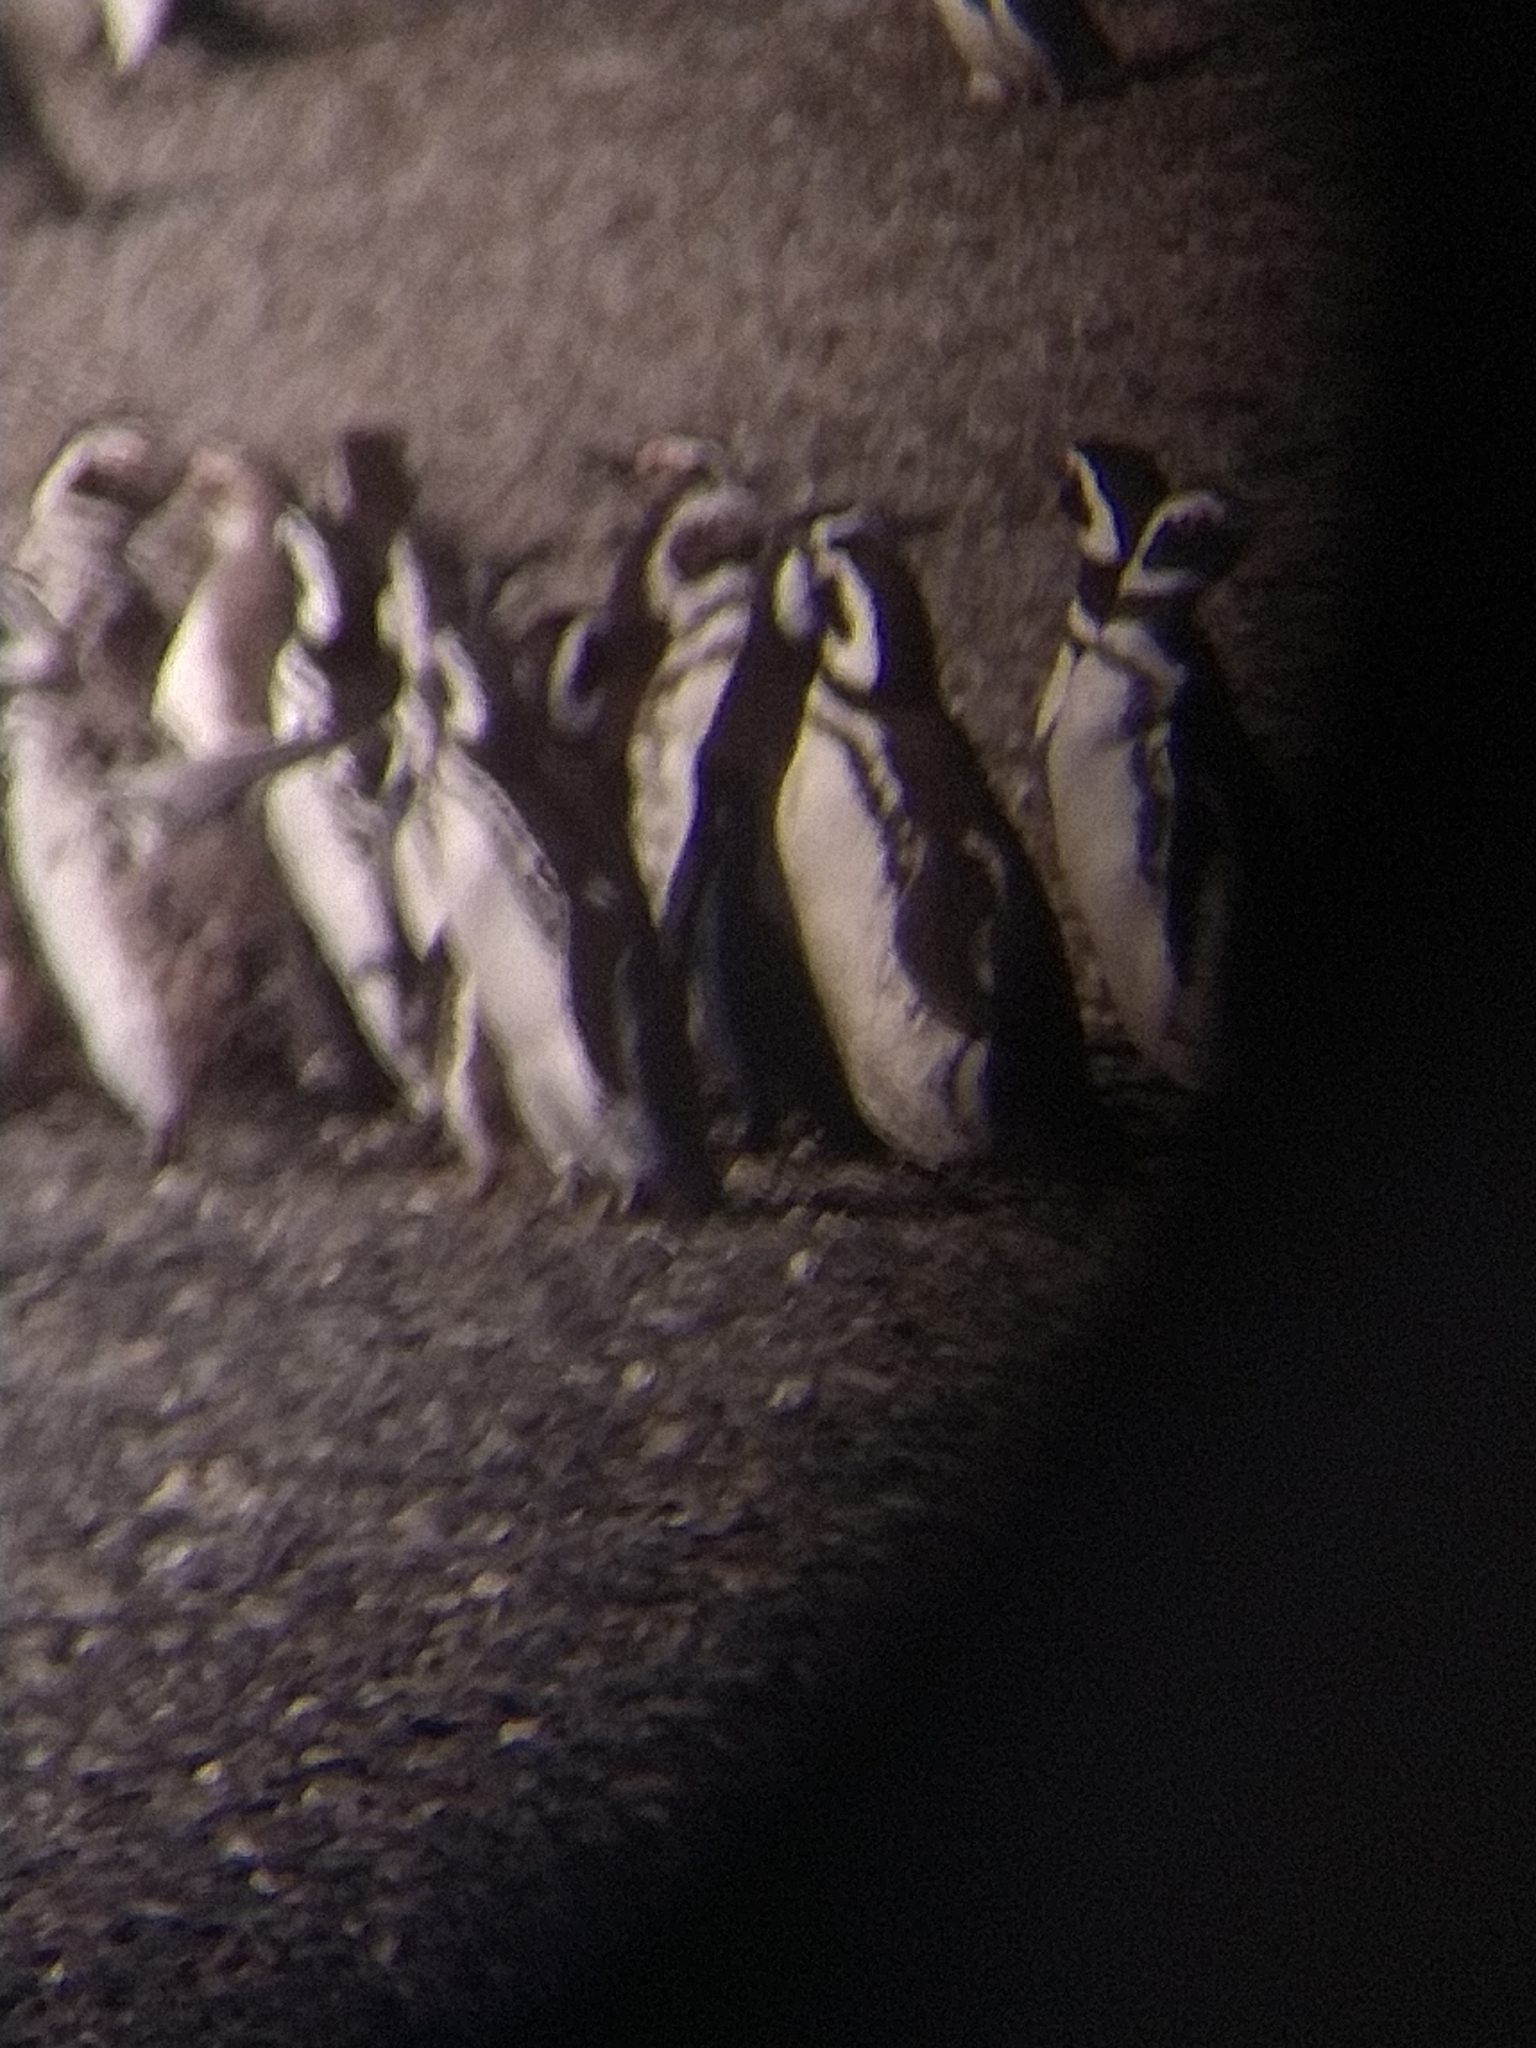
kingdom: Animalia
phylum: Chordata
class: Aves
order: Sphenisciformes
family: Spheniscidae
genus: Spheniscus
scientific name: Spheniscus magellanicus
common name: Magellanic penguin
